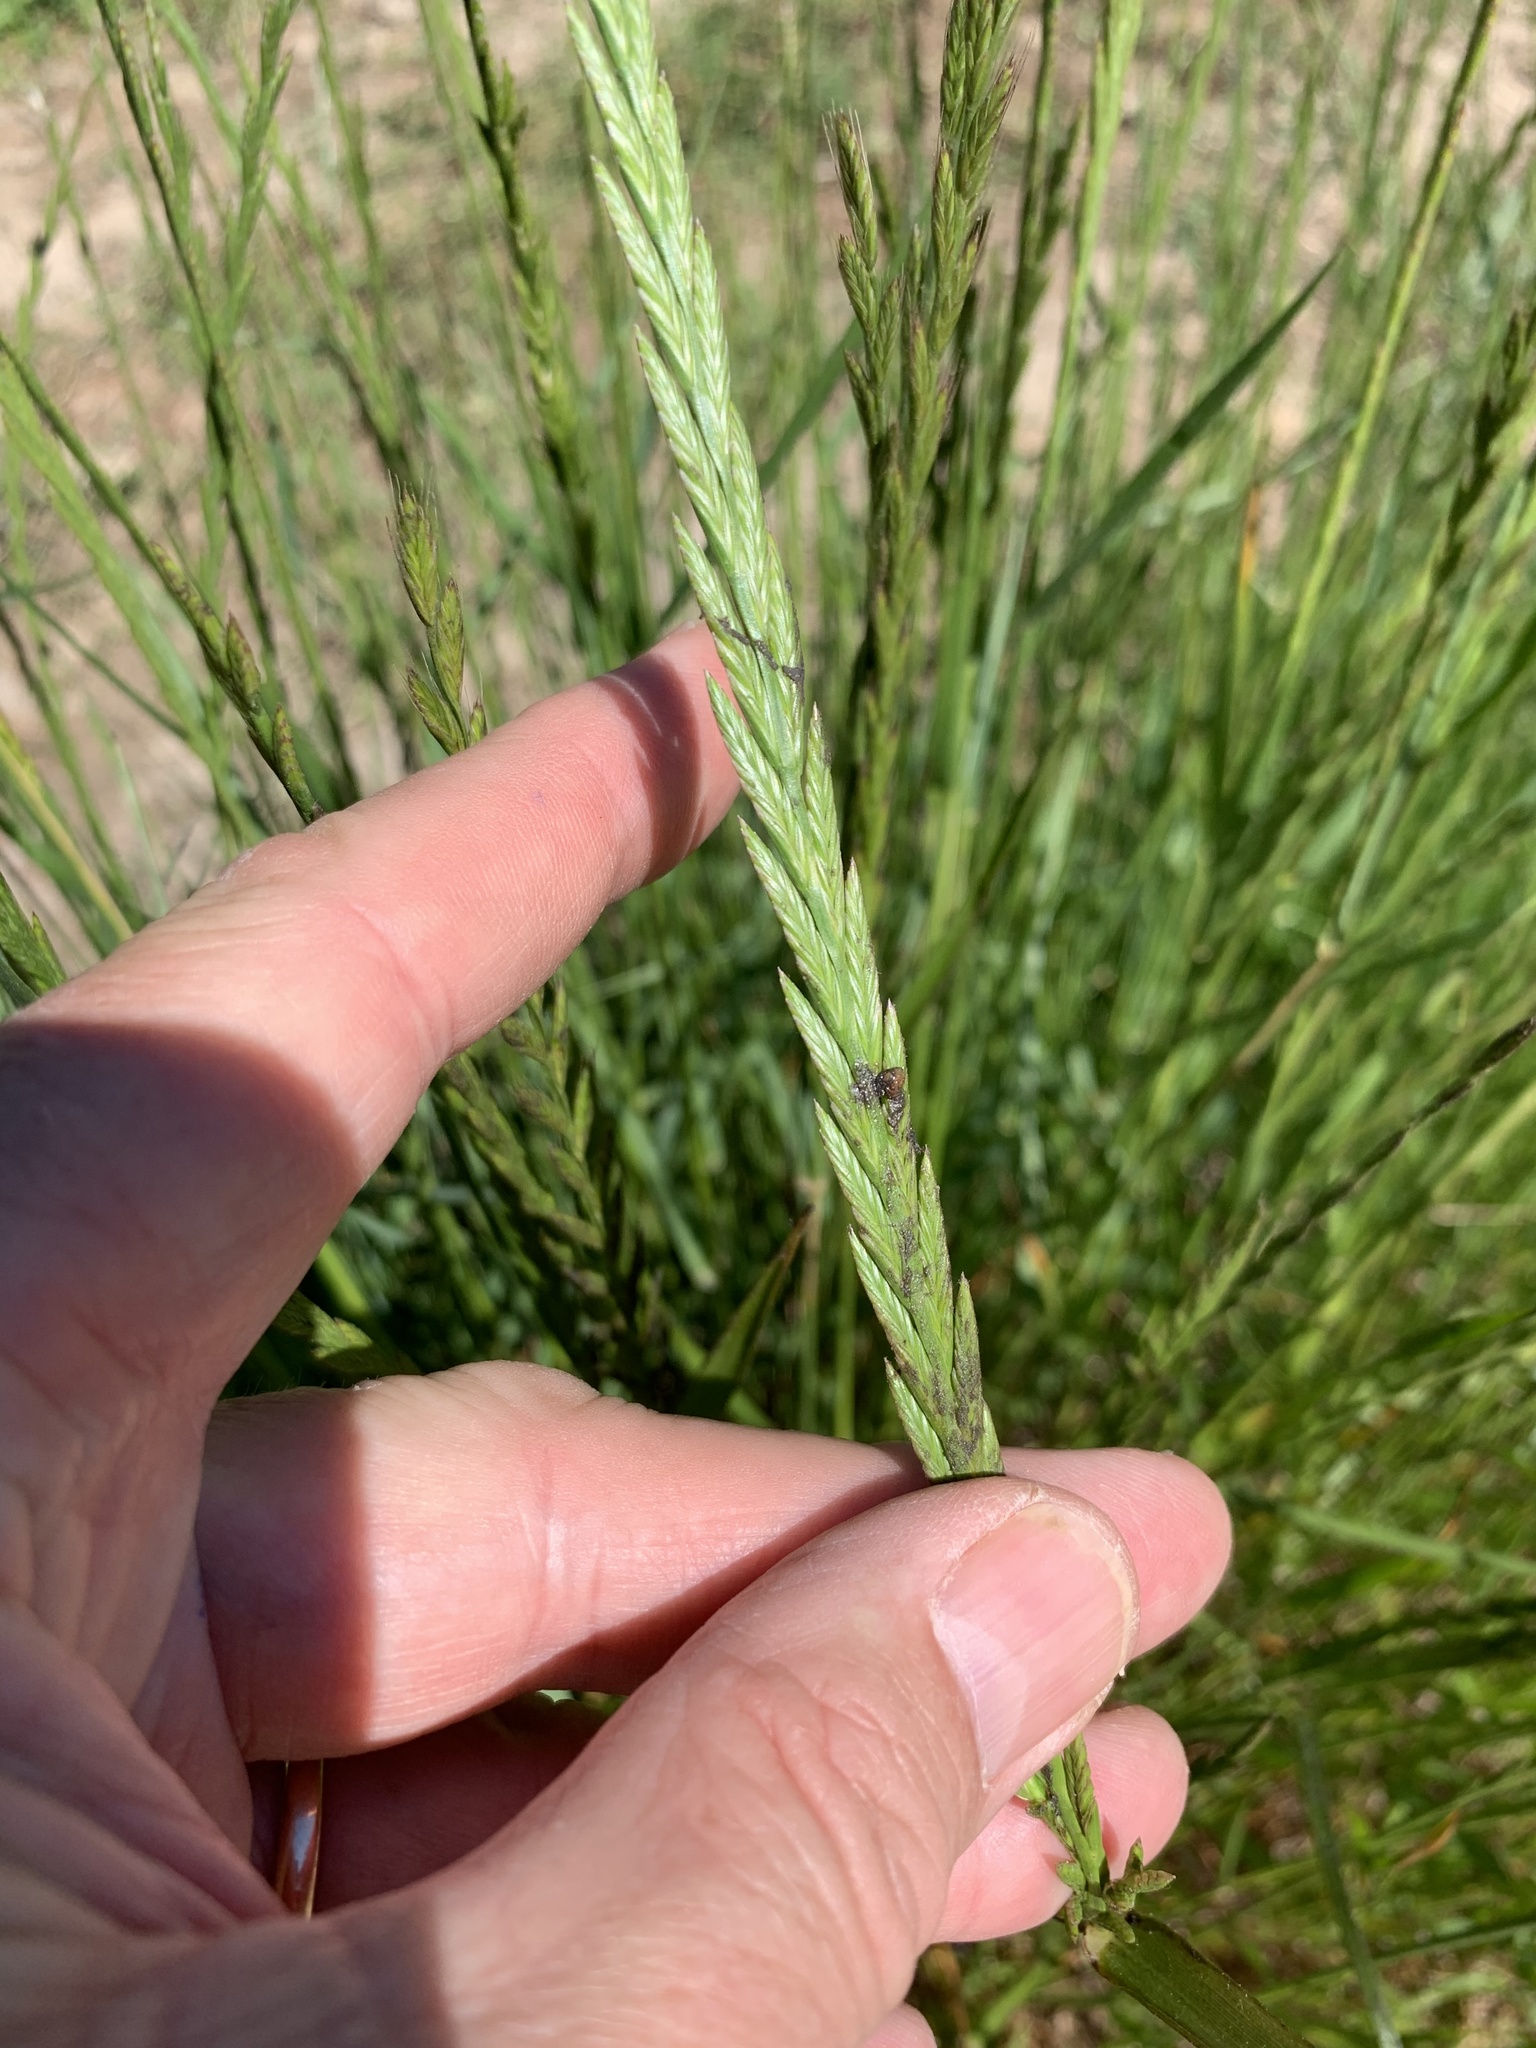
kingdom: Plantae
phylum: Tracheophyta
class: Liliopsida
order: Poales
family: Poaceae
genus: Lolium
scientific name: Lolium multiflorum
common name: Annual ryegrass
